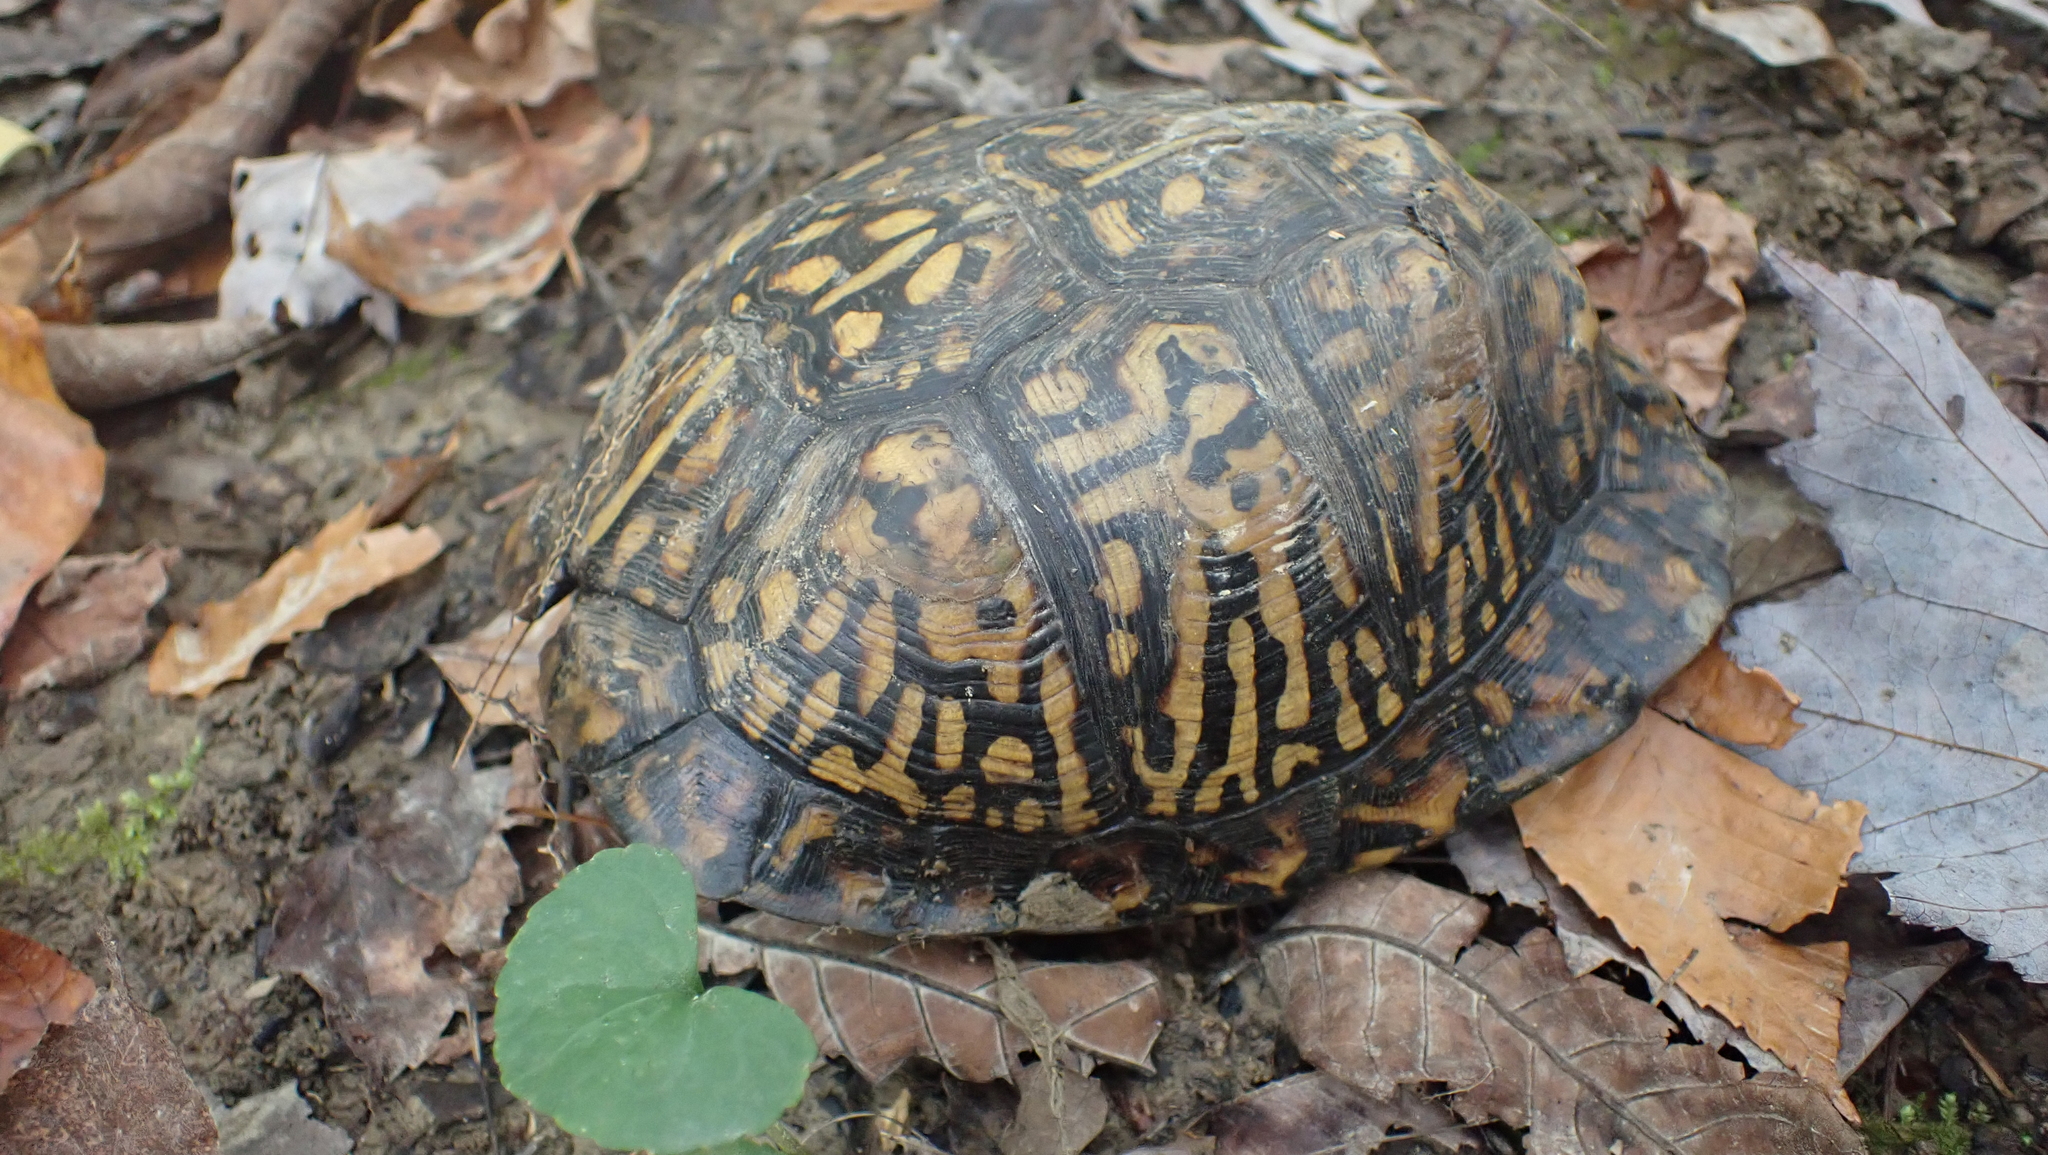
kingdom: Animalia
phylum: Chordata
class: Testudines
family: Emydidae
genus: Terrapene
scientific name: Terrapene carolina
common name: Common box turtle
